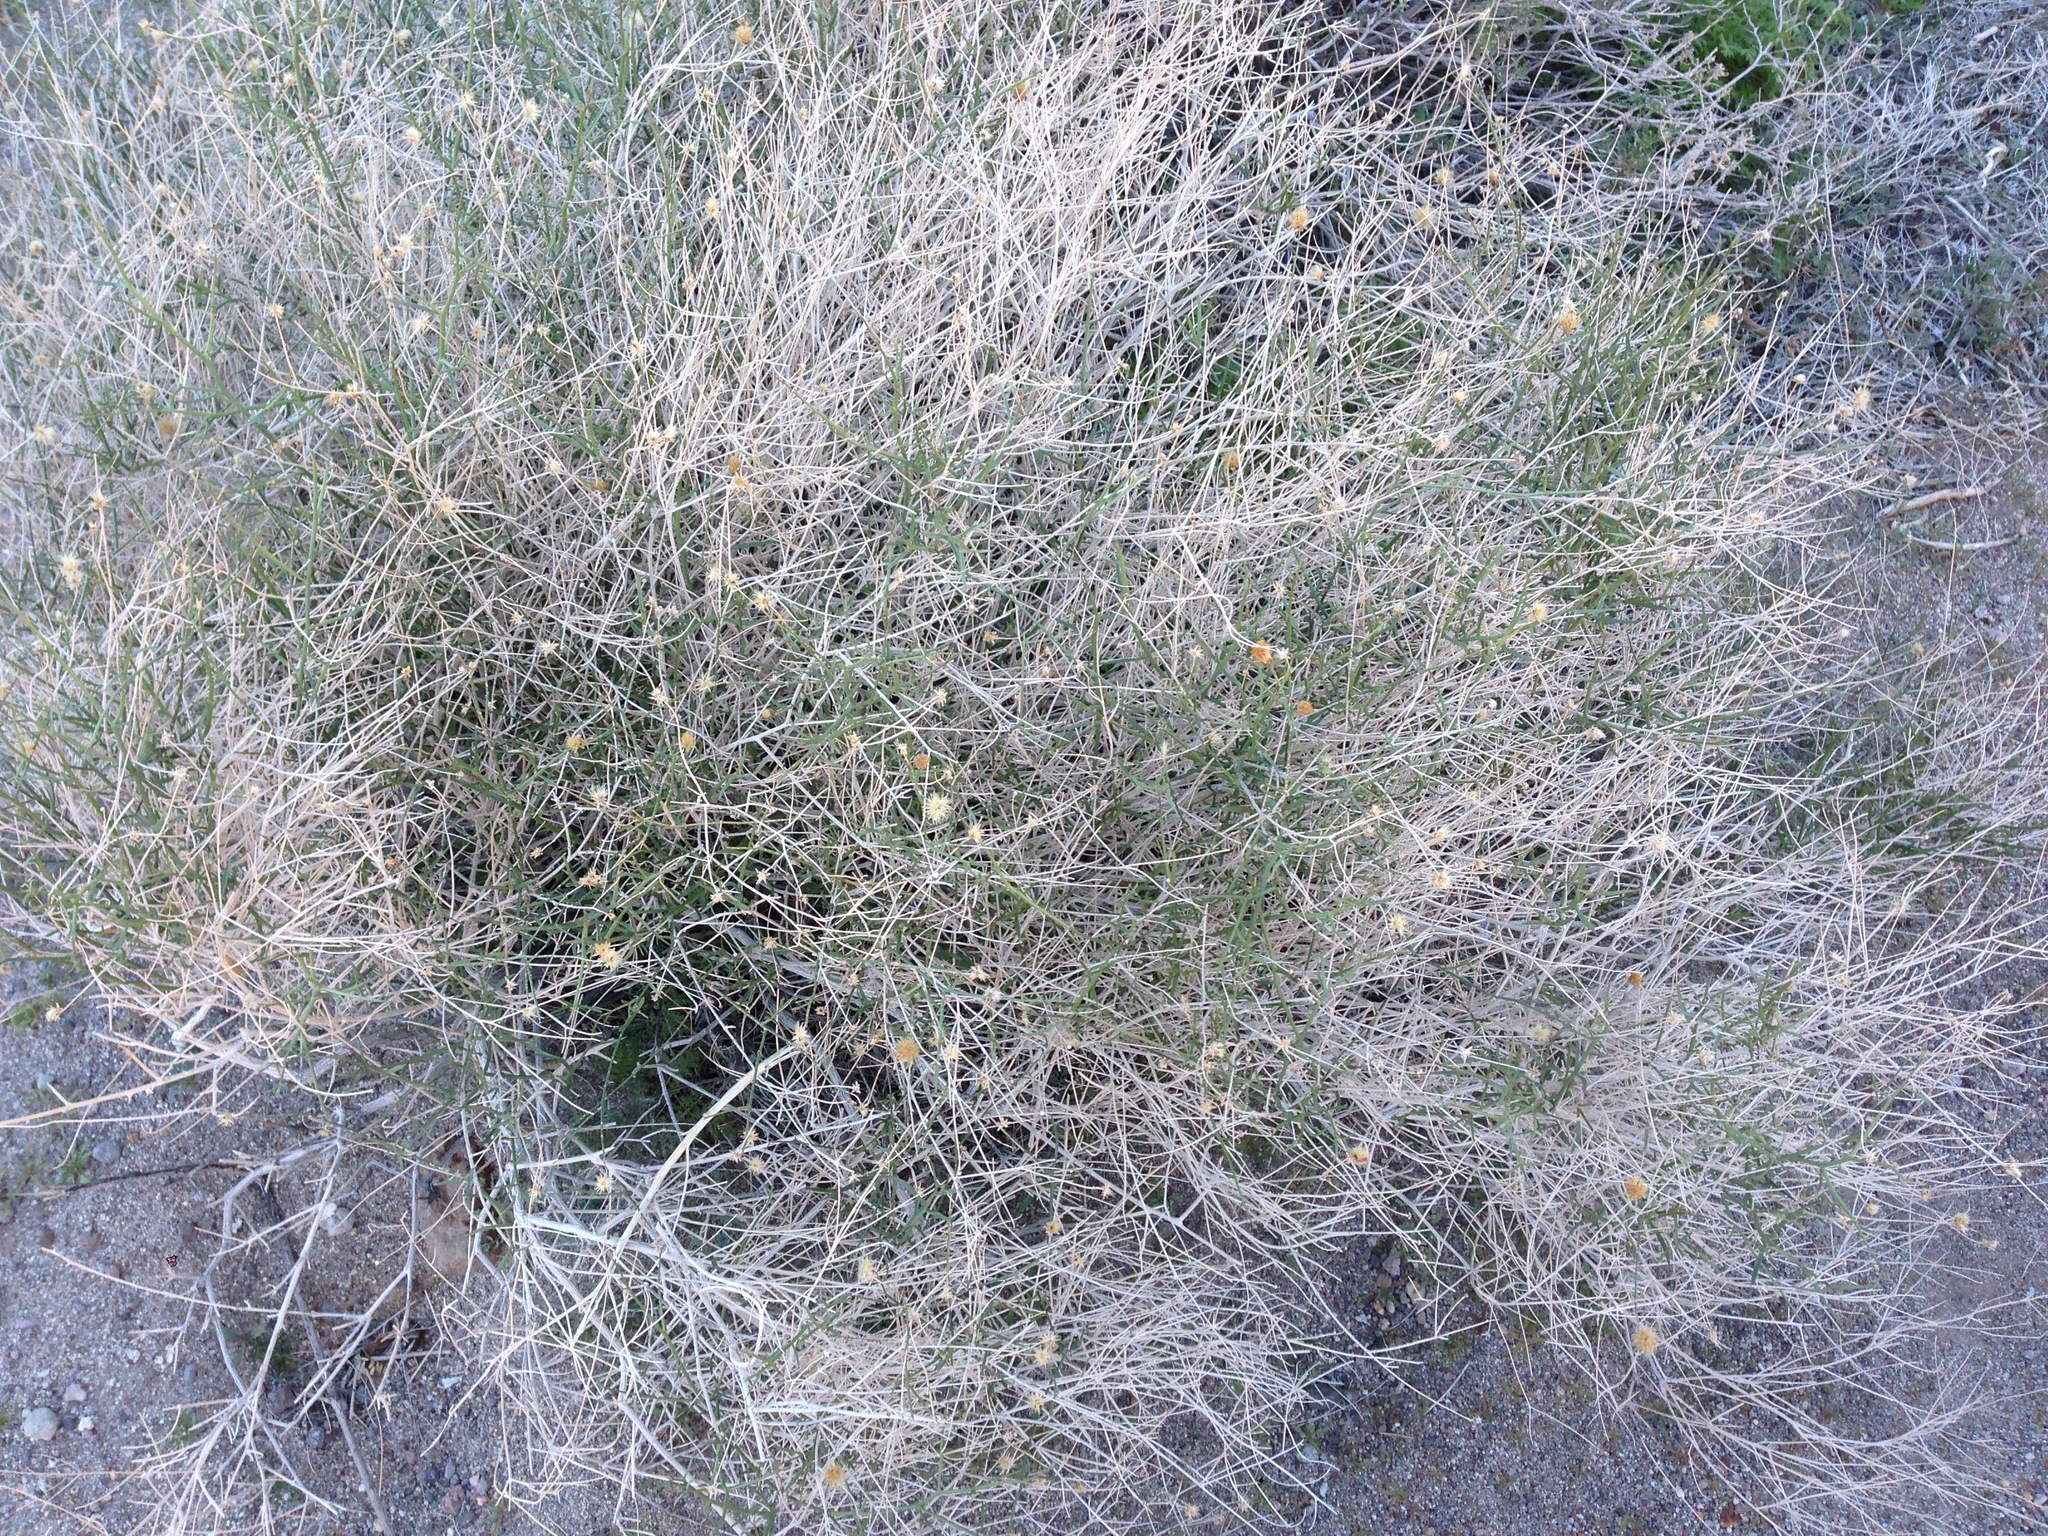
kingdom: Plantae
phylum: Tracheophyta
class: Magnoliopsida
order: Asterales
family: Asteraceae
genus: Bebbia
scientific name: Bebbia juncea
